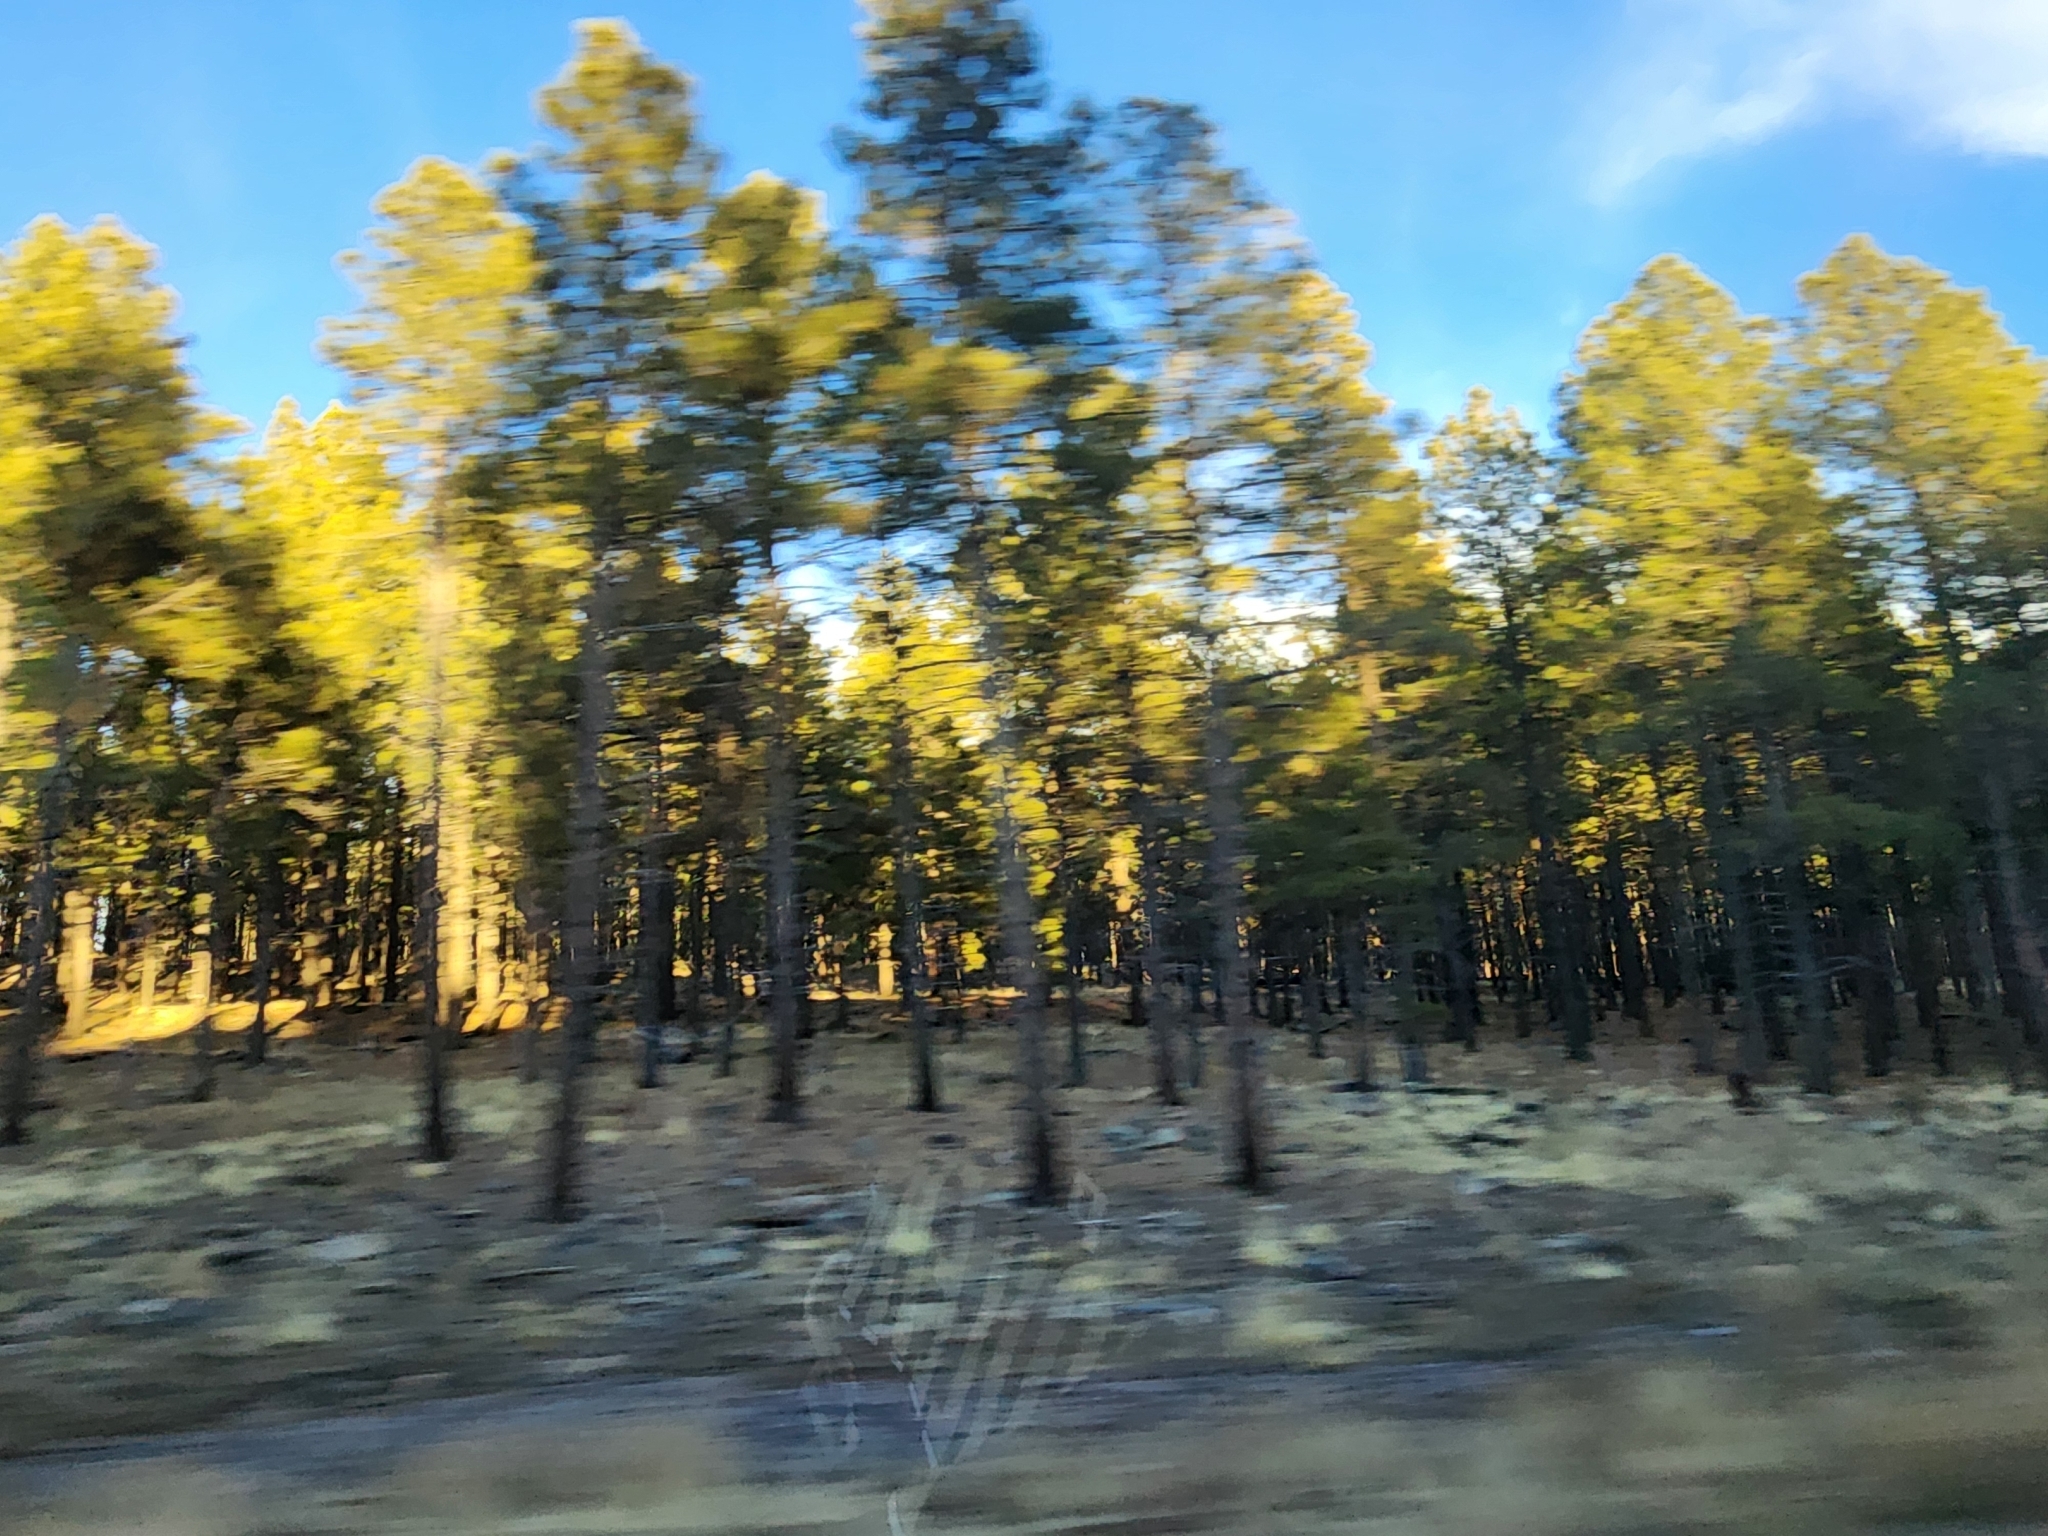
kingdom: Plantae
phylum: Tracheophyta
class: Pinopsida
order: Pinales
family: Pinaceae
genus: Pinus
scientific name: Pinus ponderosa
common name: Western yellow-pine
